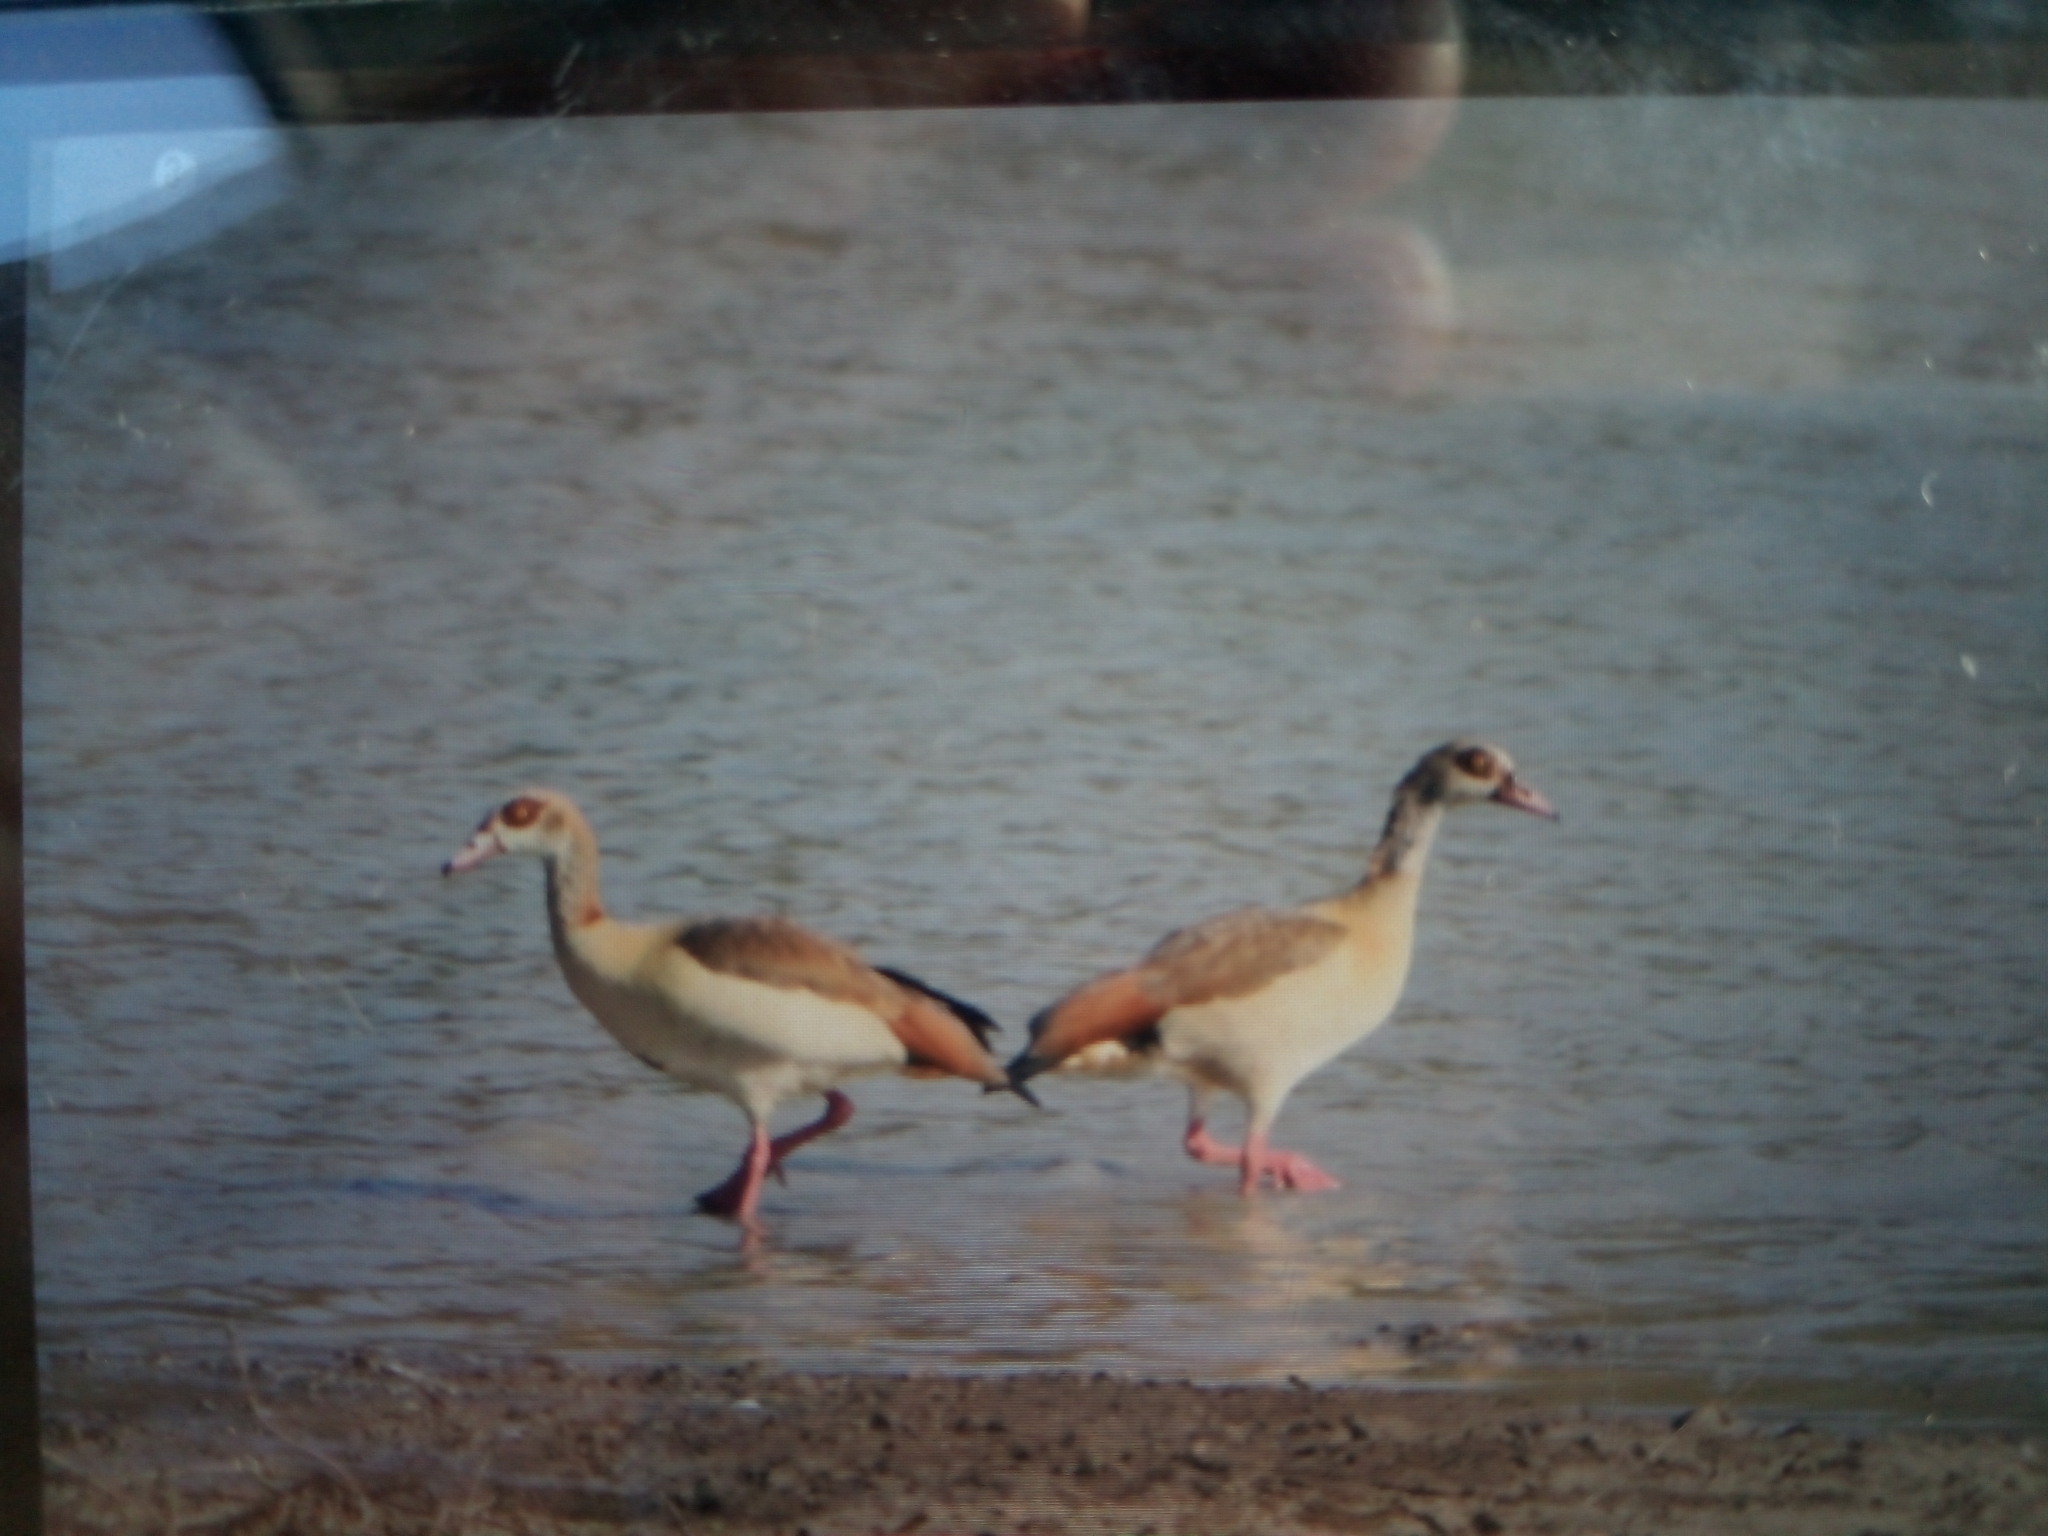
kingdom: Animalia
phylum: Chordata
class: Aves
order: Anseriformes
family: Anatidae
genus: Alopochen
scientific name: Alopochen aegyptiaca
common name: Egyptian goose
